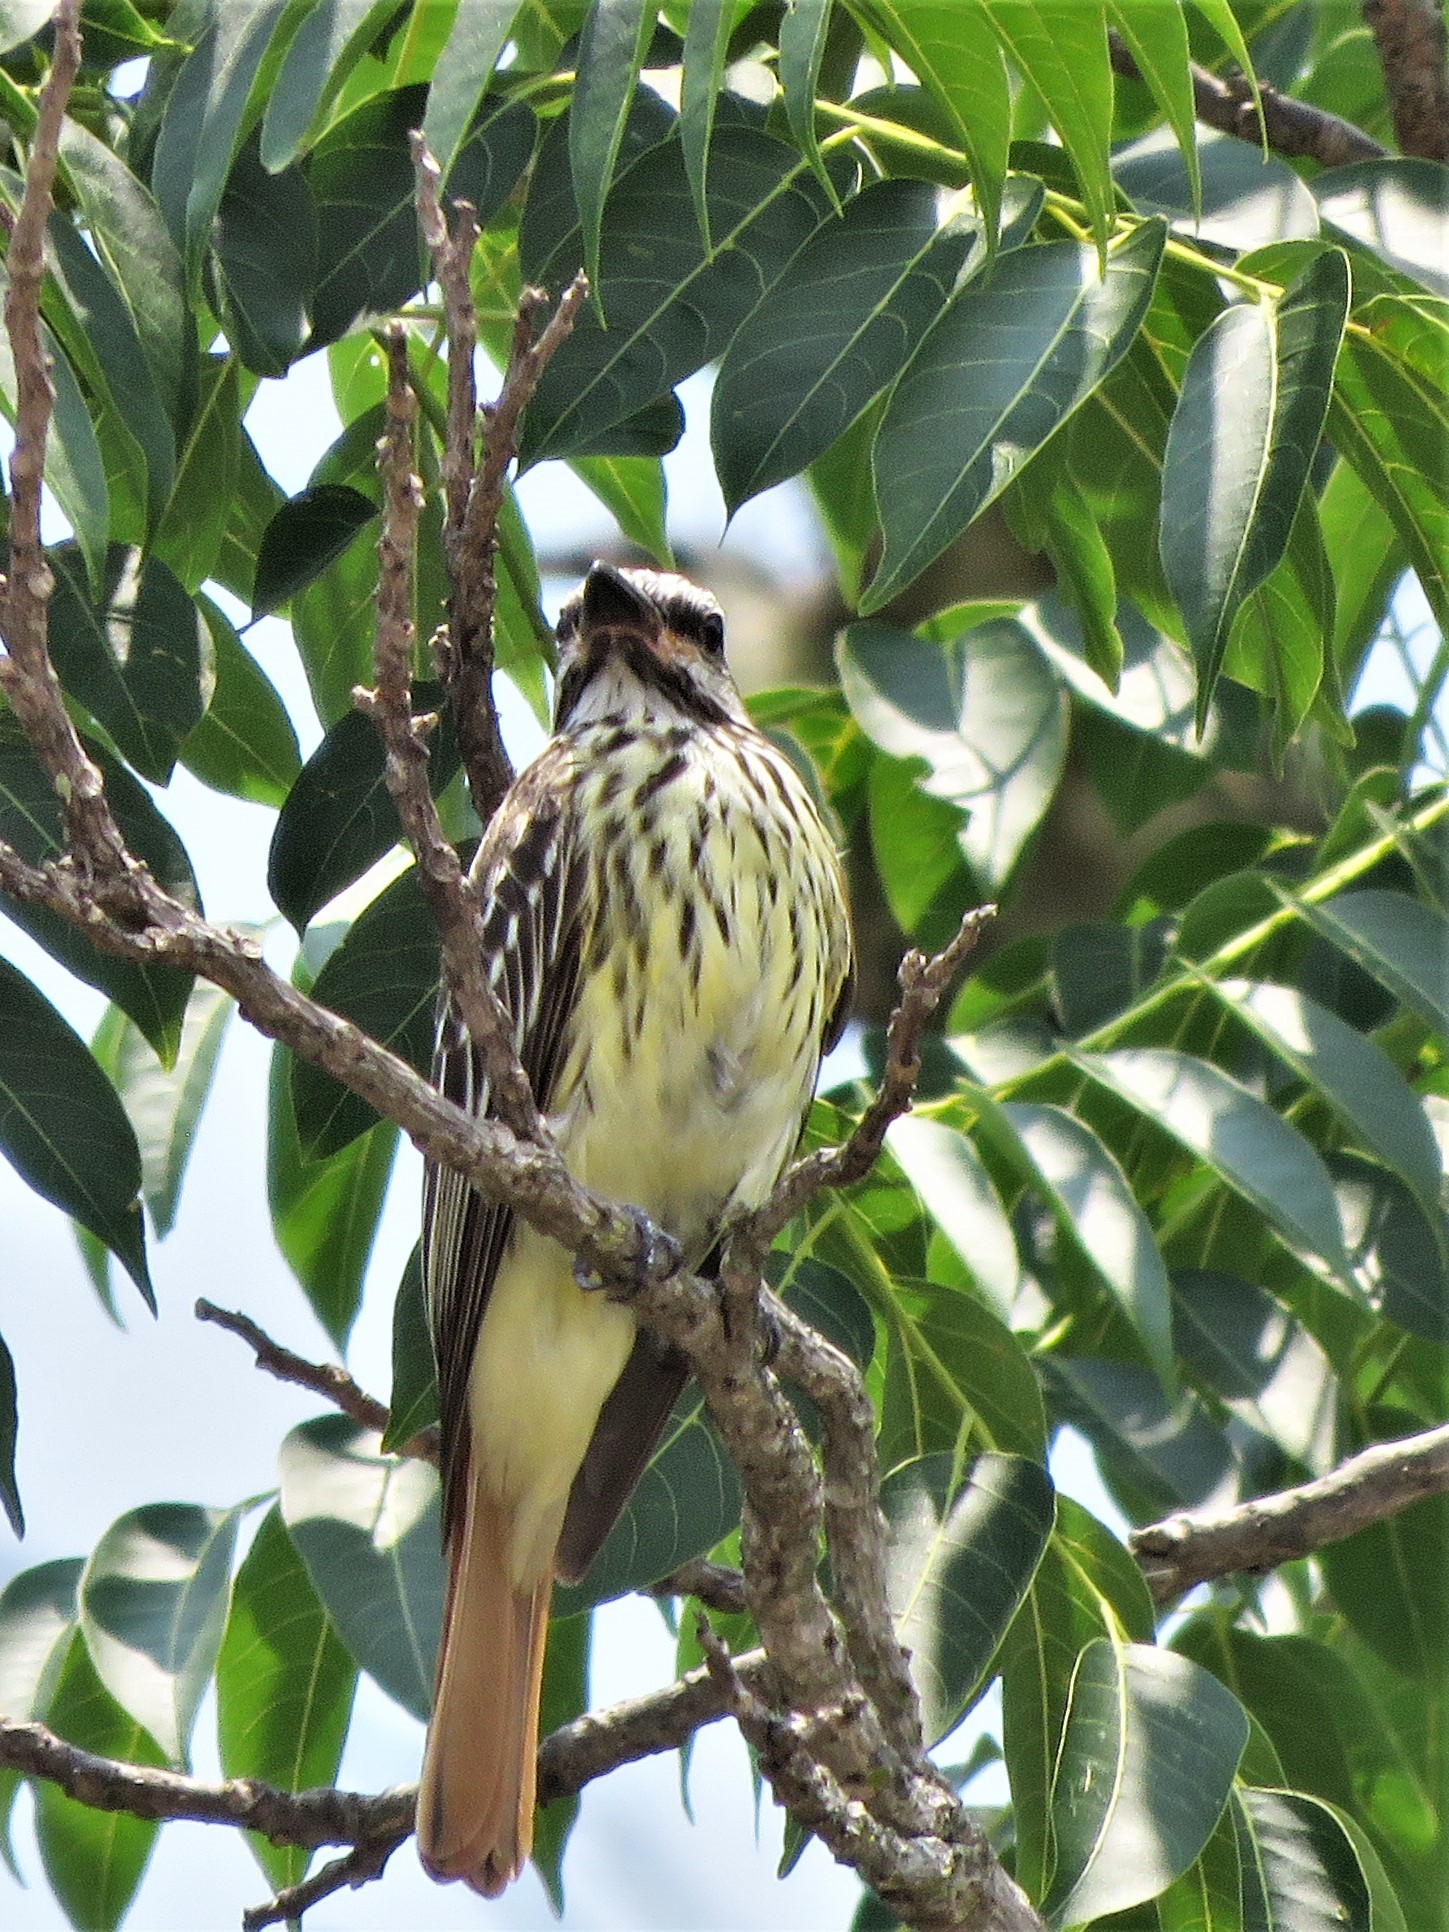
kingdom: Animalia
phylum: Chordata
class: Aves
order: Passeriformes
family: Tyrannidae
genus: Myiodynastes
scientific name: Myiodynastes luteiventris
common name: Sulphur-bellied flycatcher
